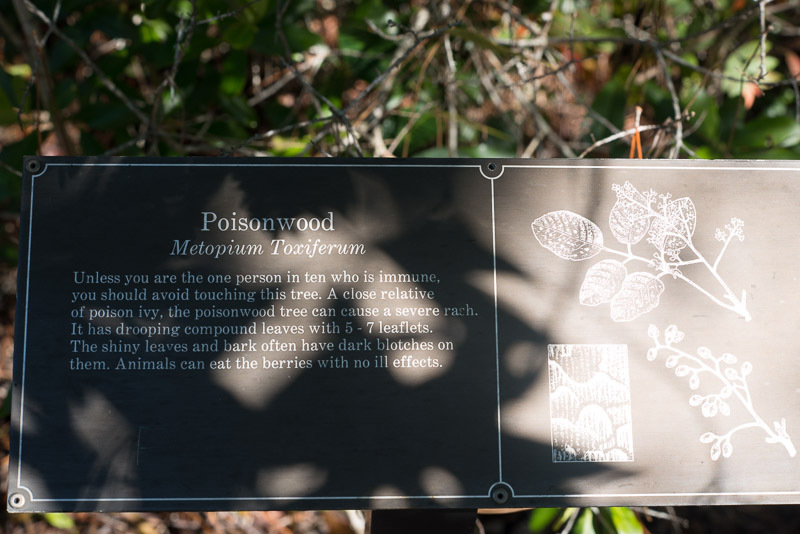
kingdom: Plantae
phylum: Tracheophyta
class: Magnoliopsida
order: Sapindales
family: Anacardiaceae
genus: Metopium
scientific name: Metopium toxiferum
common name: Florida poisontree
